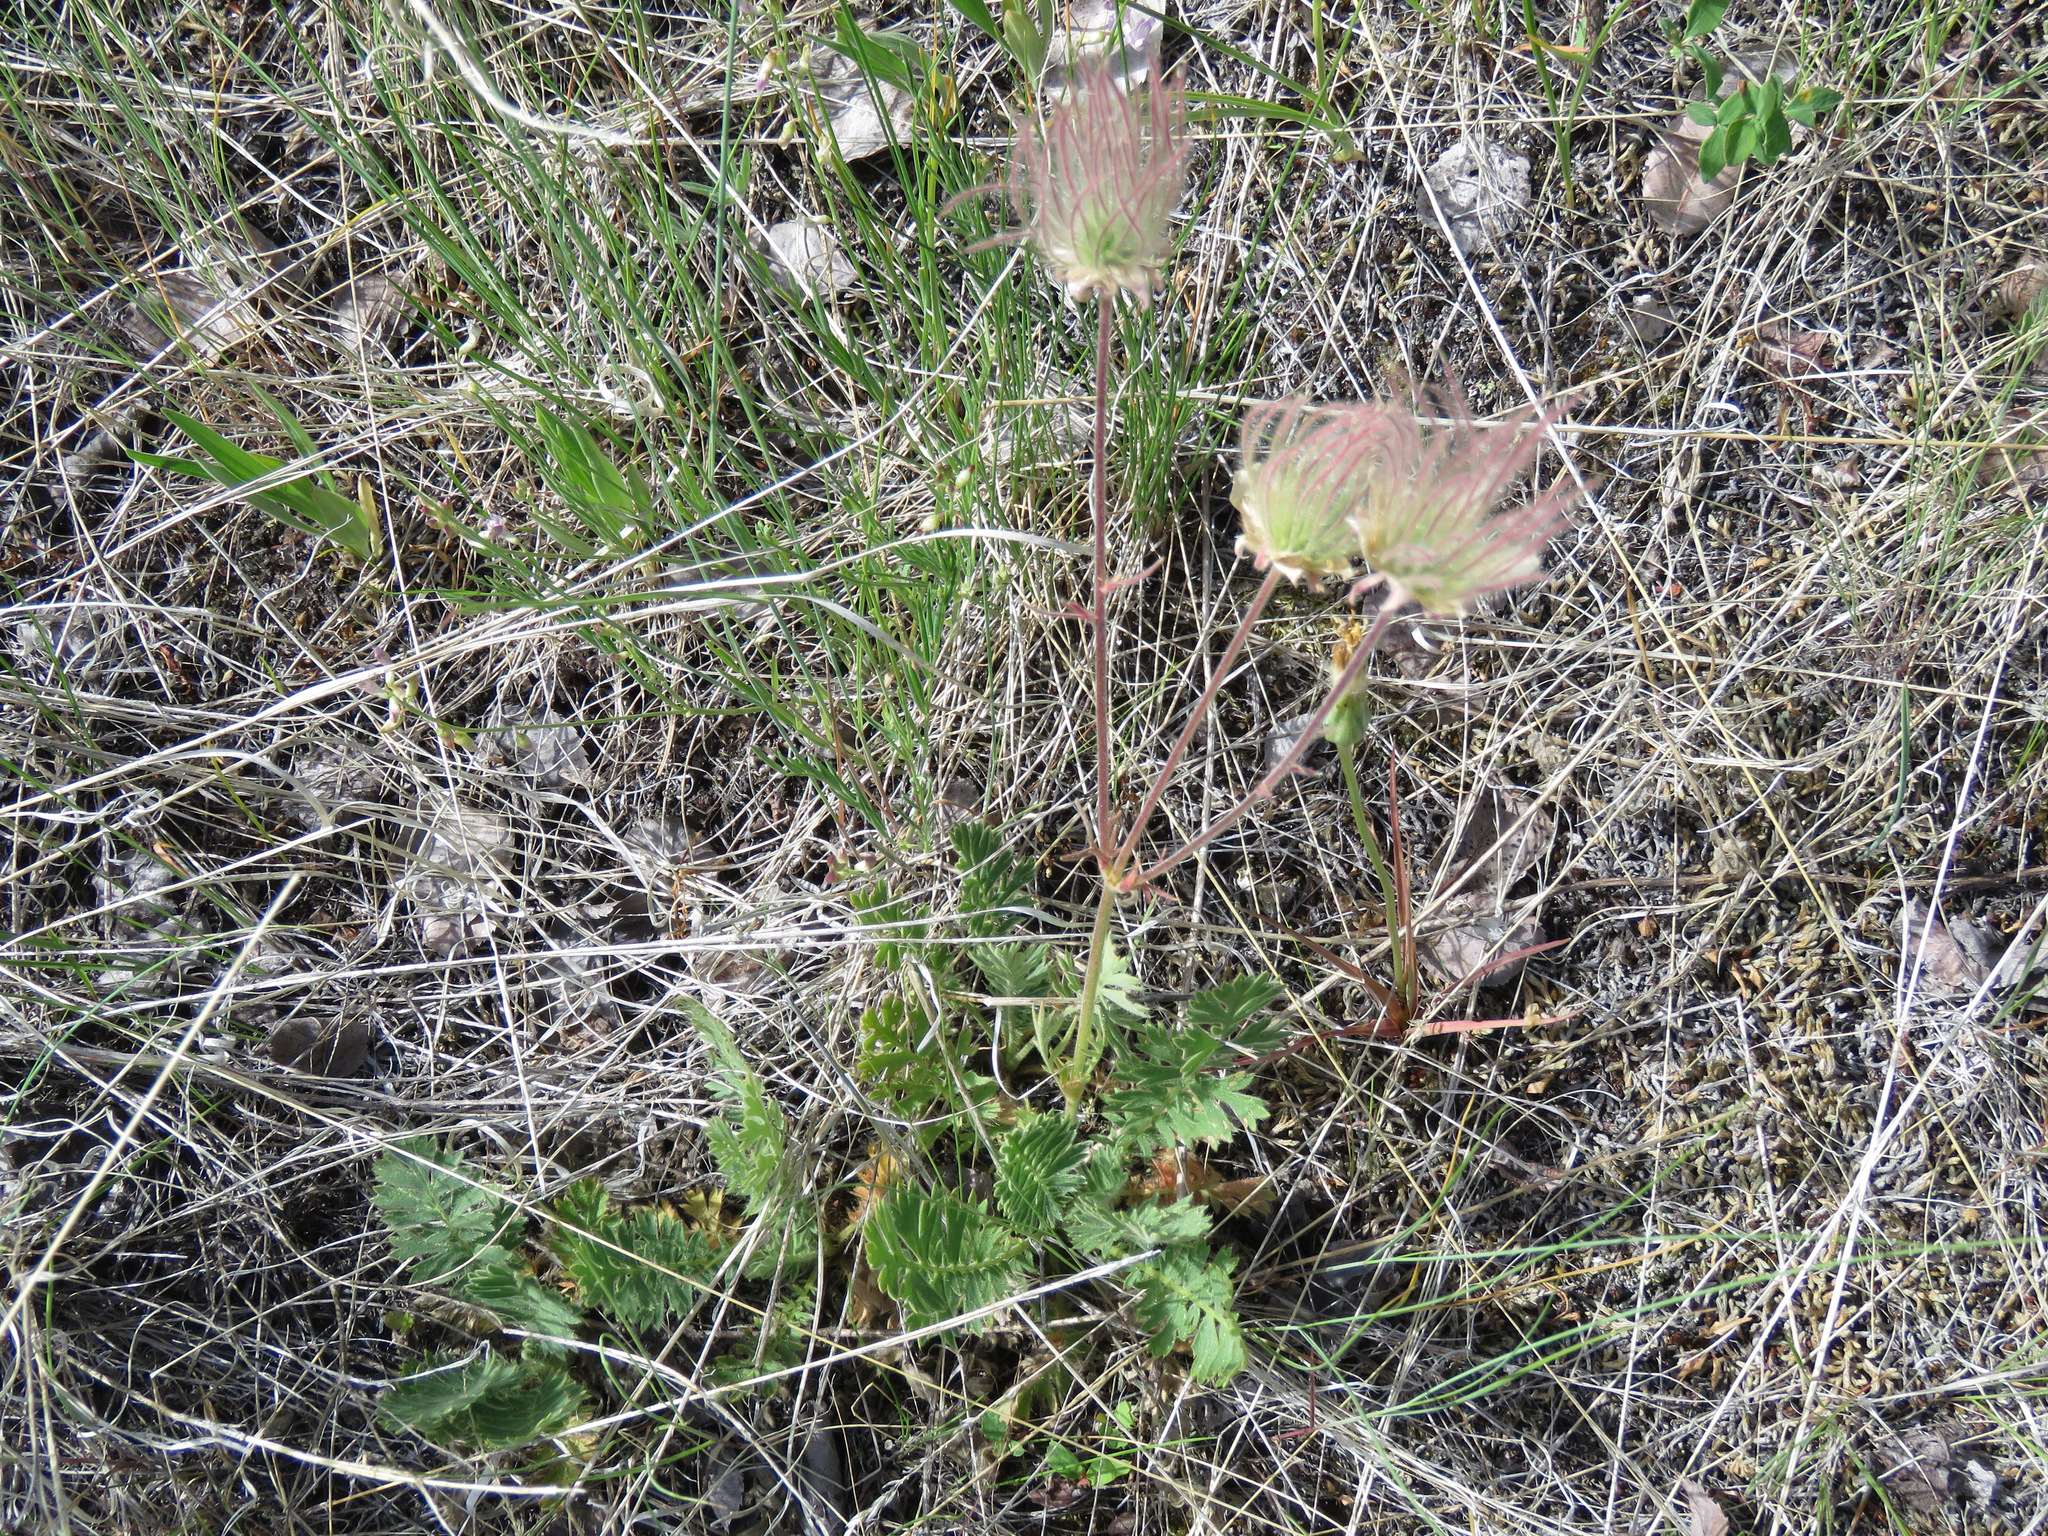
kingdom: Plantae
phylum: Tracheophyta
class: Magnoliopsida
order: Rosales
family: Rosaceae
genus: Geum
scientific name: Geum triflorum
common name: Old man's whiskers
